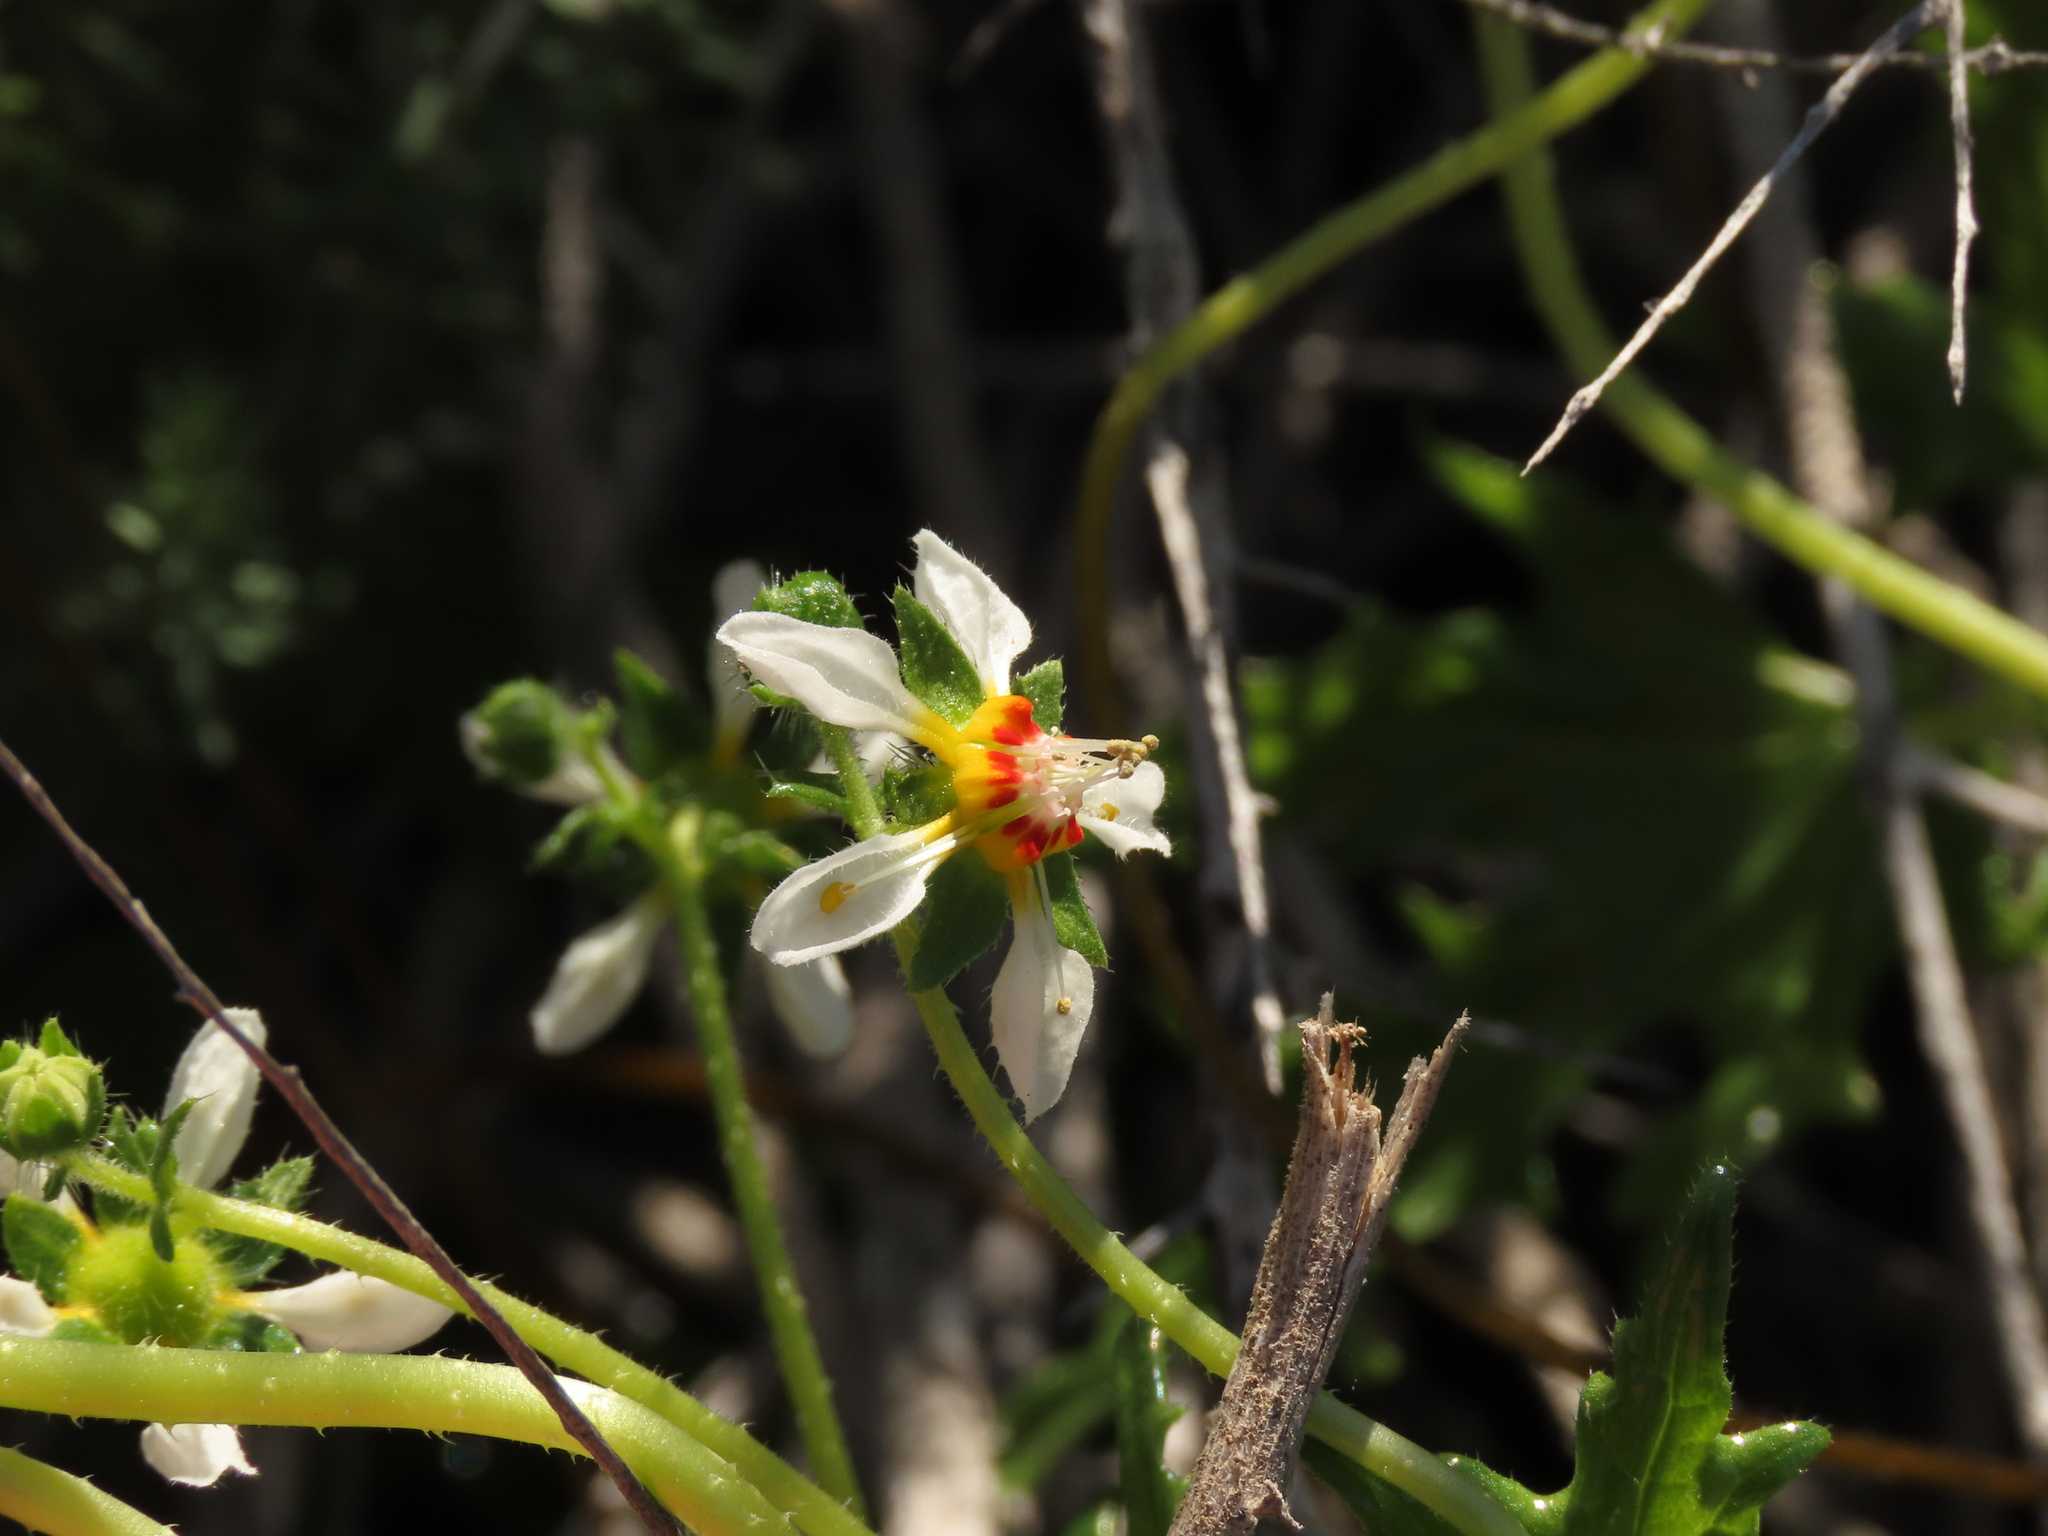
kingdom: Plantae
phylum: Tracheophyta
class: Magnoliopsida
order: Cornales
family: Loasaceae
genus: Loasa
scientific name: Loasa elongata
